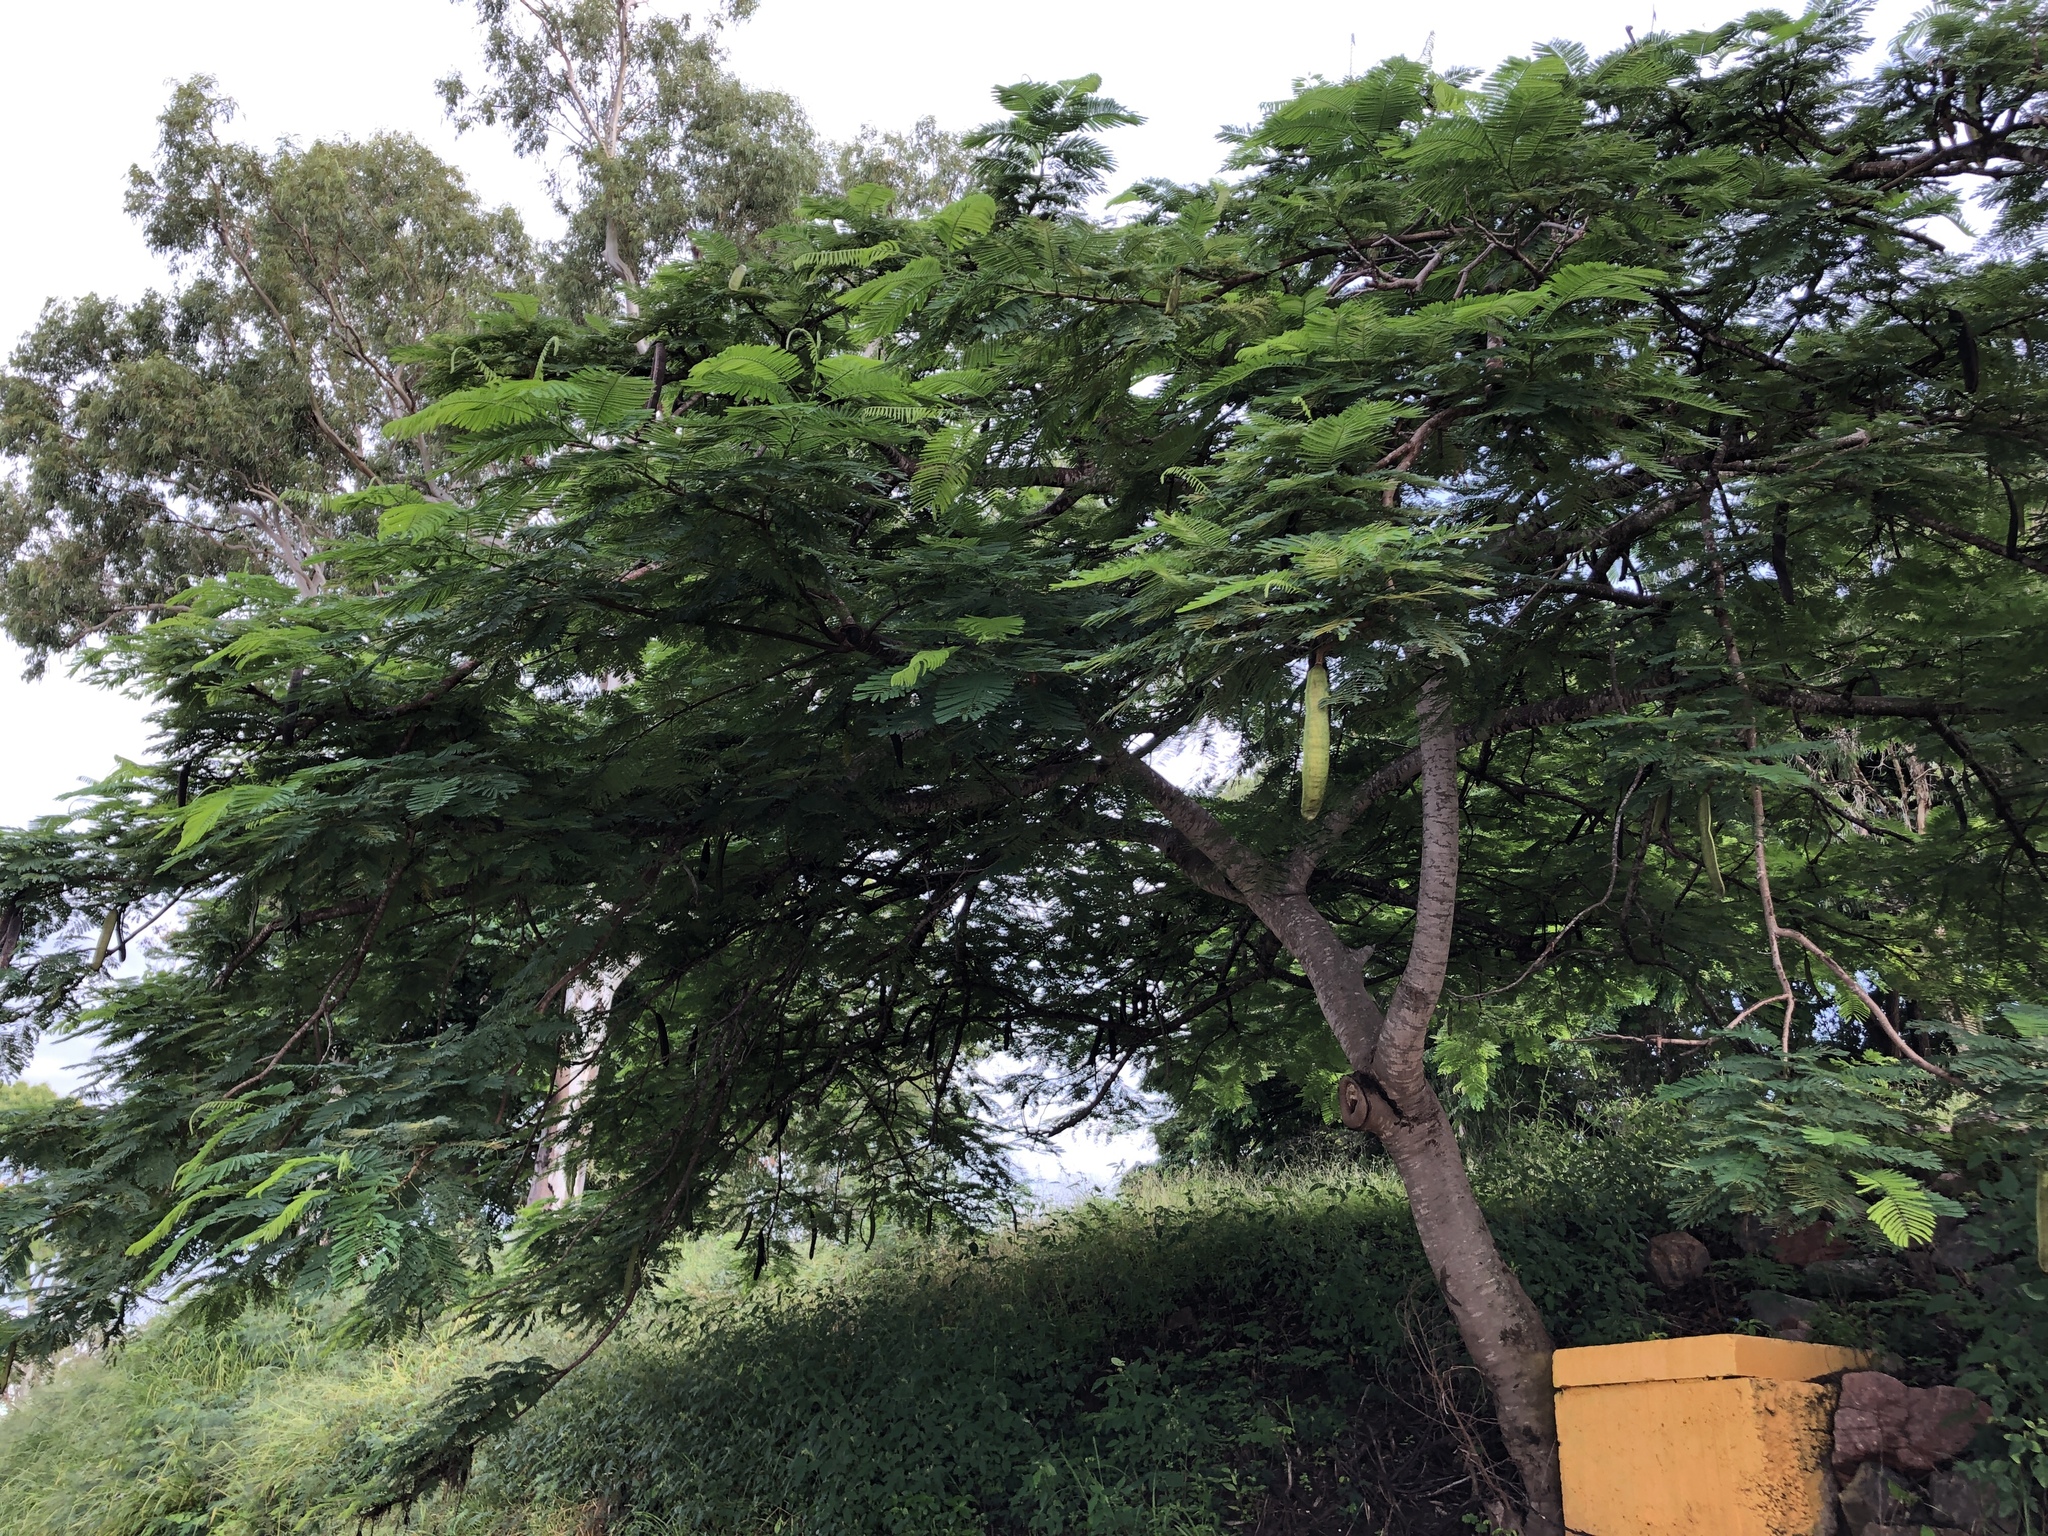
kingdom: Plantae
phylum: Tracheophyta
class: Magnoliopsida
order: Fabales
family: Fabaceae
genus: Delonix
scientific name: Delonix regia
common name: Royal poinciana
